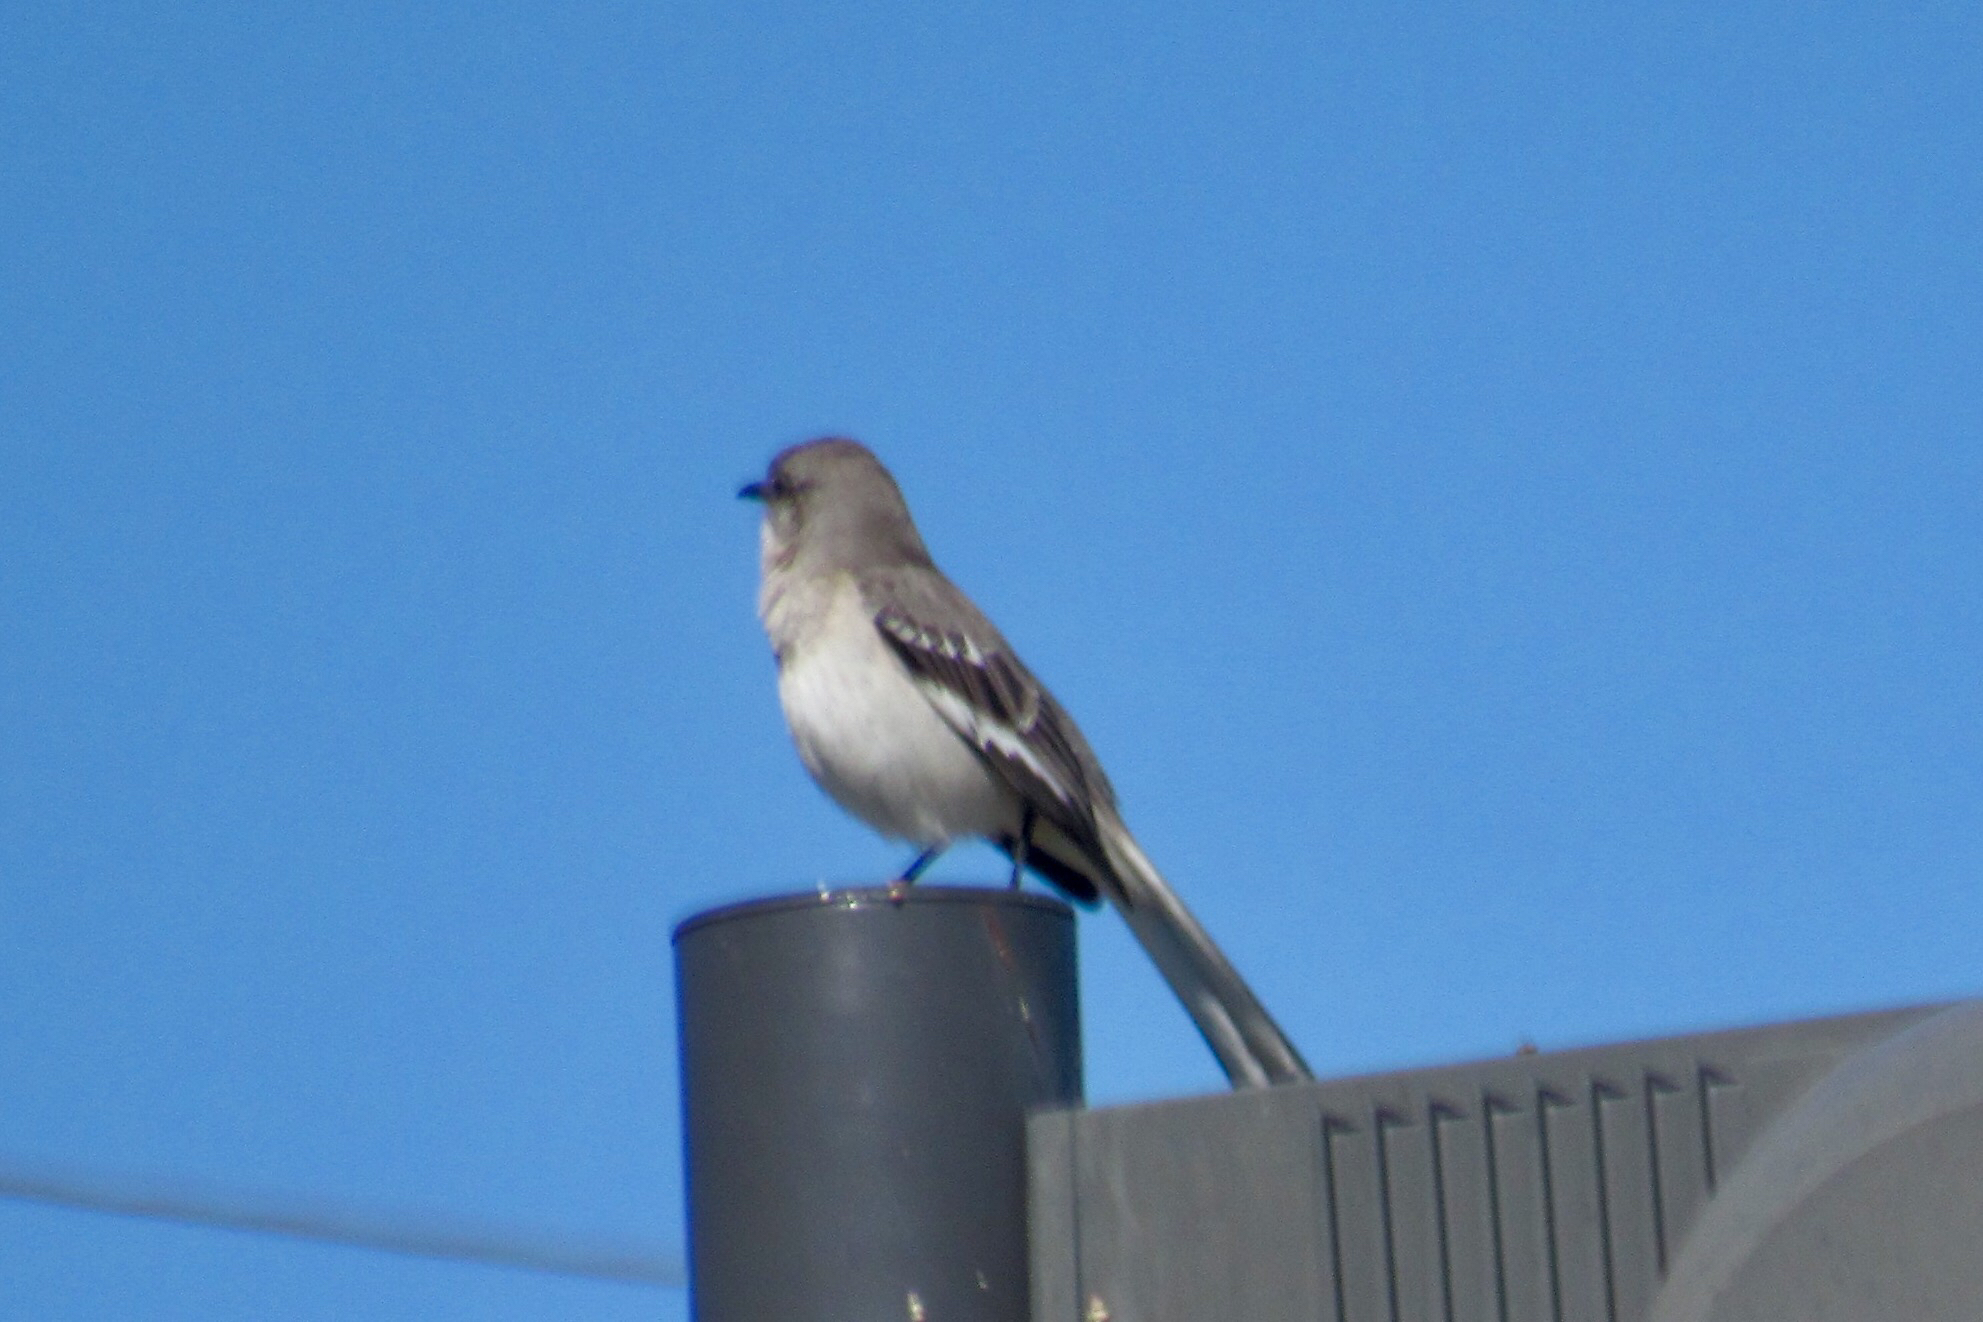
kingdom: Animalia
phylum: Chordata
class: Aves
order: Passeriformes
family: Mimidae
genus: Mimus
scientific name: Mimus polyglottos
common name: Northern mockingbird
